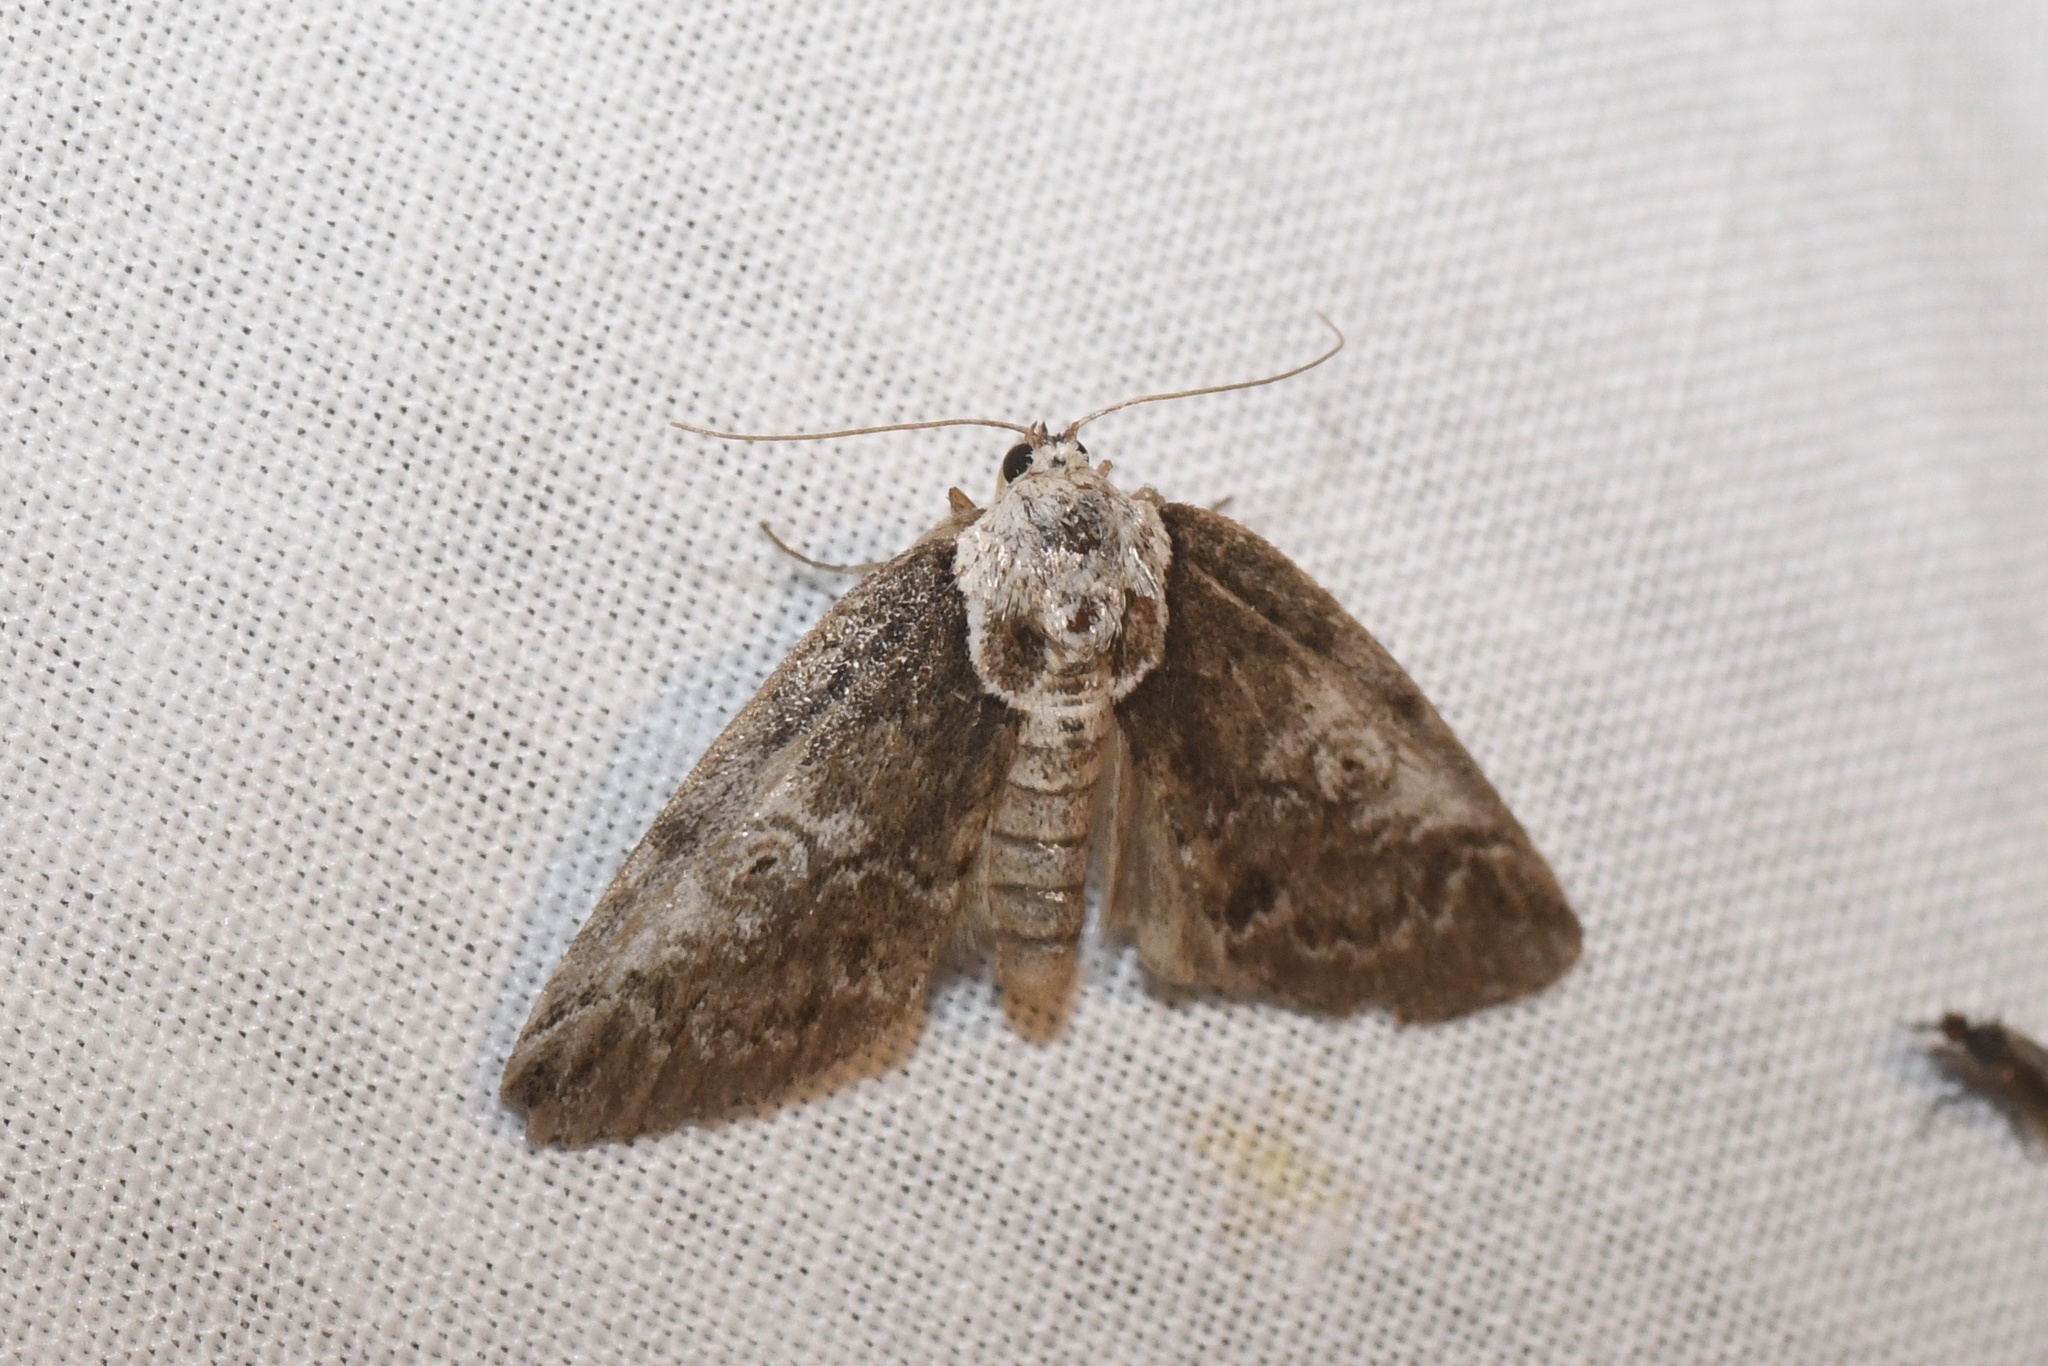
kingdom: Animalia
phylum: Arthropoda
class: Insecta
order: Lepidoptera
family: Nolidae
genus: Baileya
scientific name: Baileya ophthalmica
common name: Eyed baileya moth
